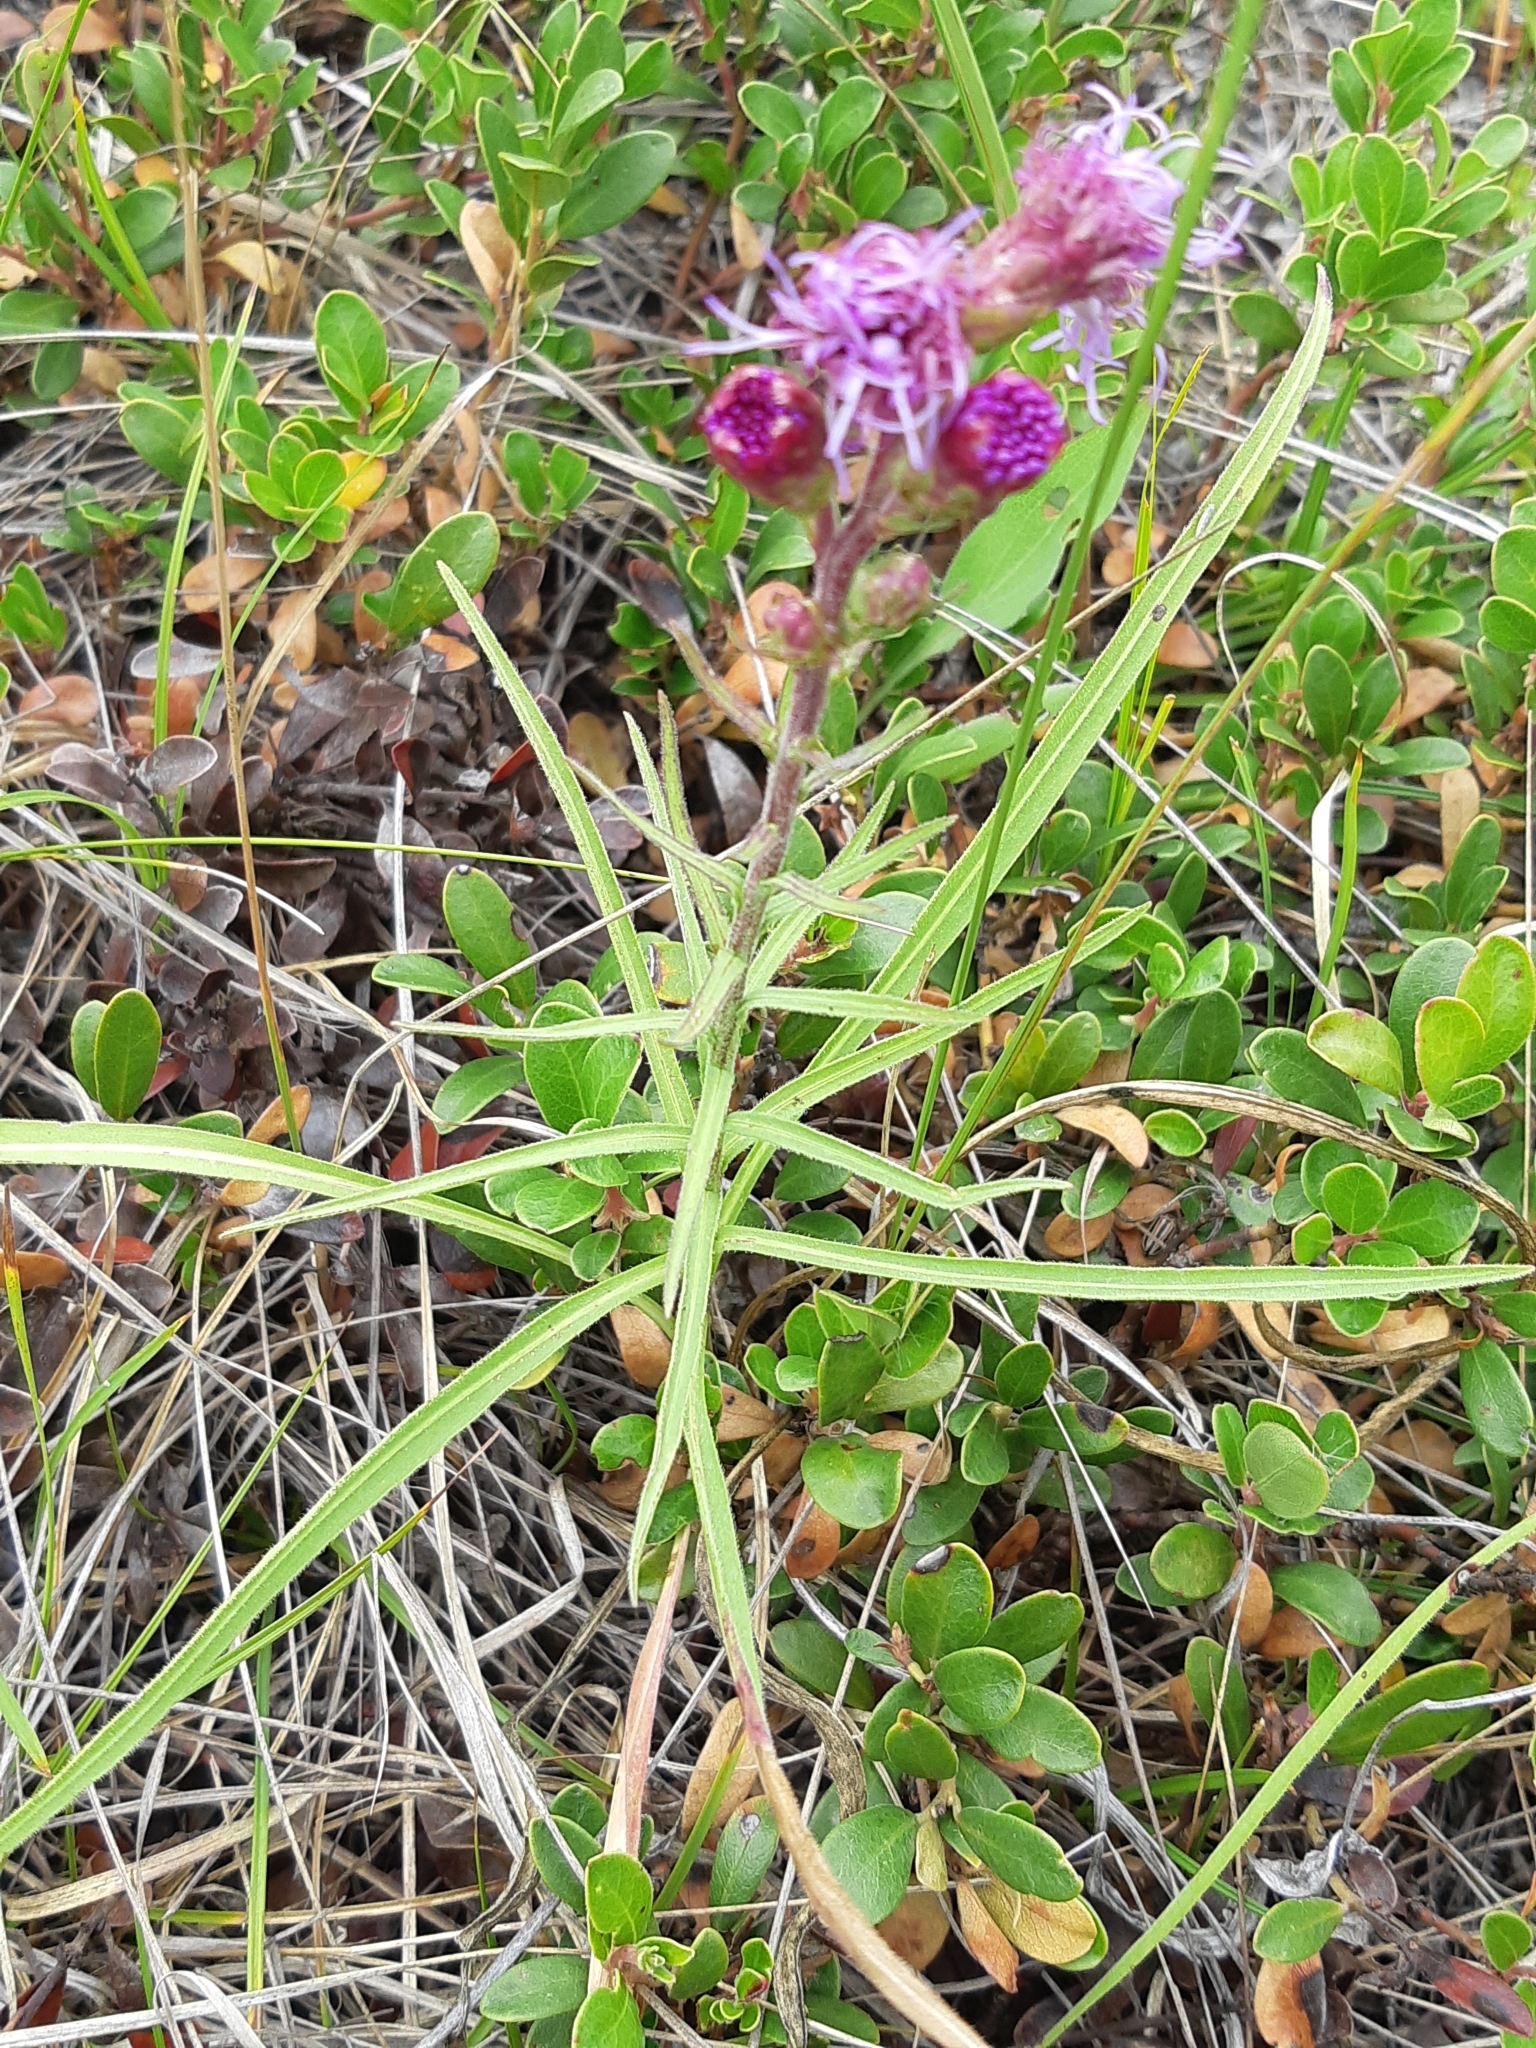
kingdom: Plantae
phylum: Tracheophyta
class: Magnoliopsida
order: Asterales
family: Asteraceae
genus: Liatris
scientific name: Liatris ligulistylis
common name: Northern plains gayfeather
